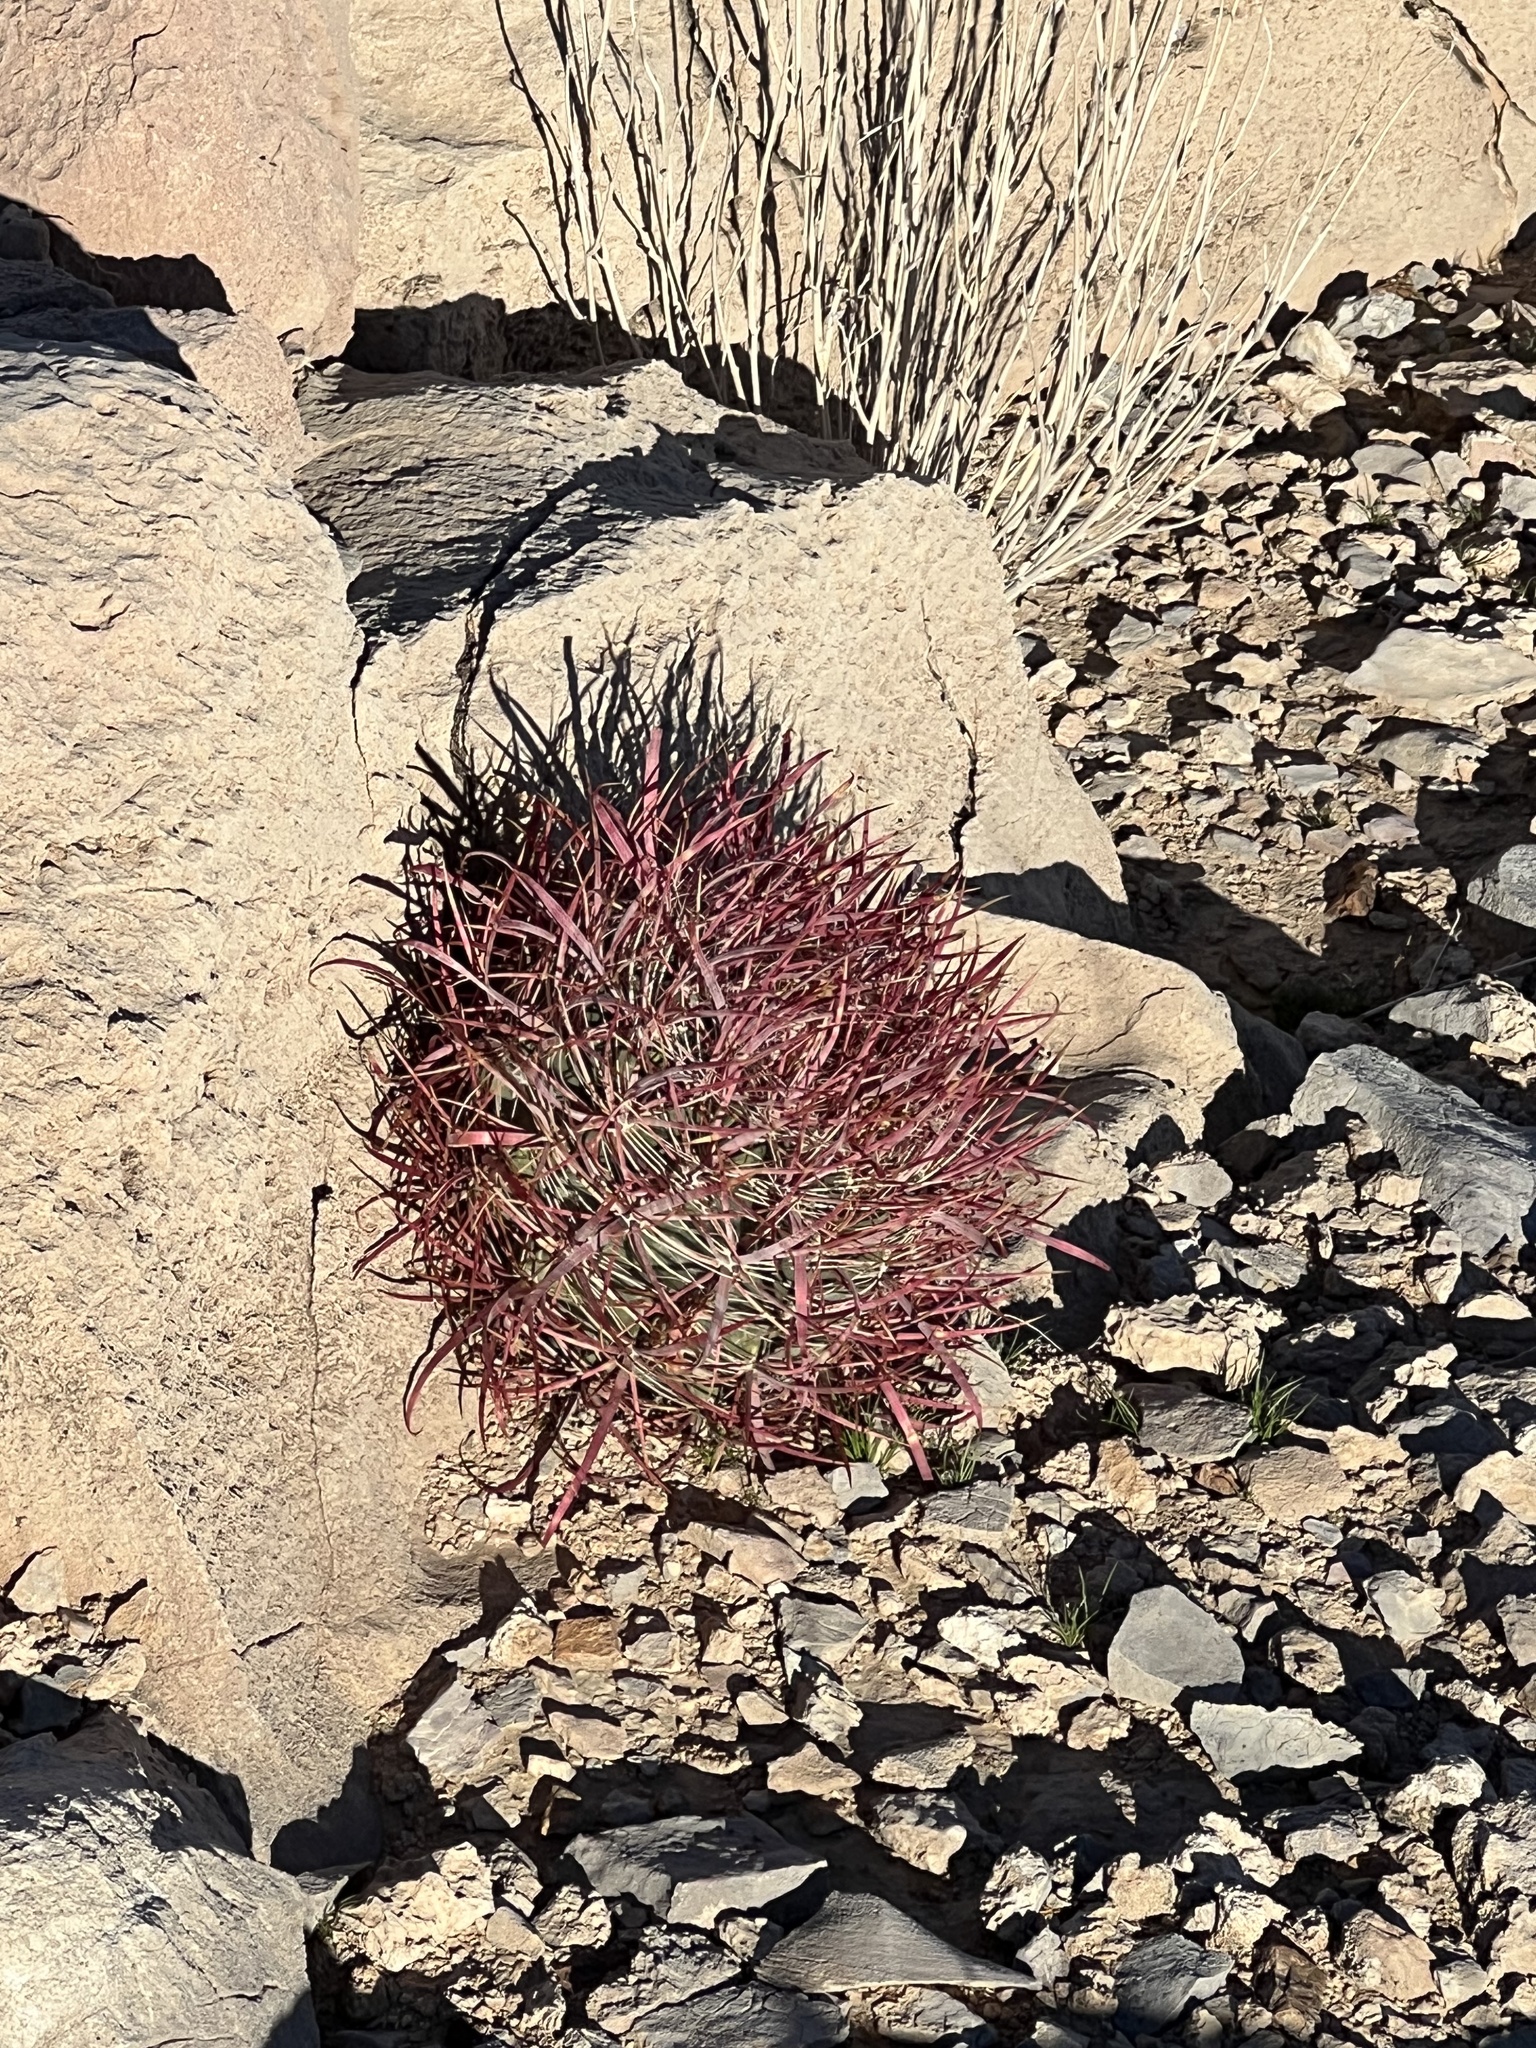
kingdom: Plantae
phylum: Tracheophyta
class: Magnoliopsida
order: Caryophyllales
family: Cactaceae
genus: Ferocactus
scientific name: Ferocactus cylindraceus
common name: California barrel cactus
